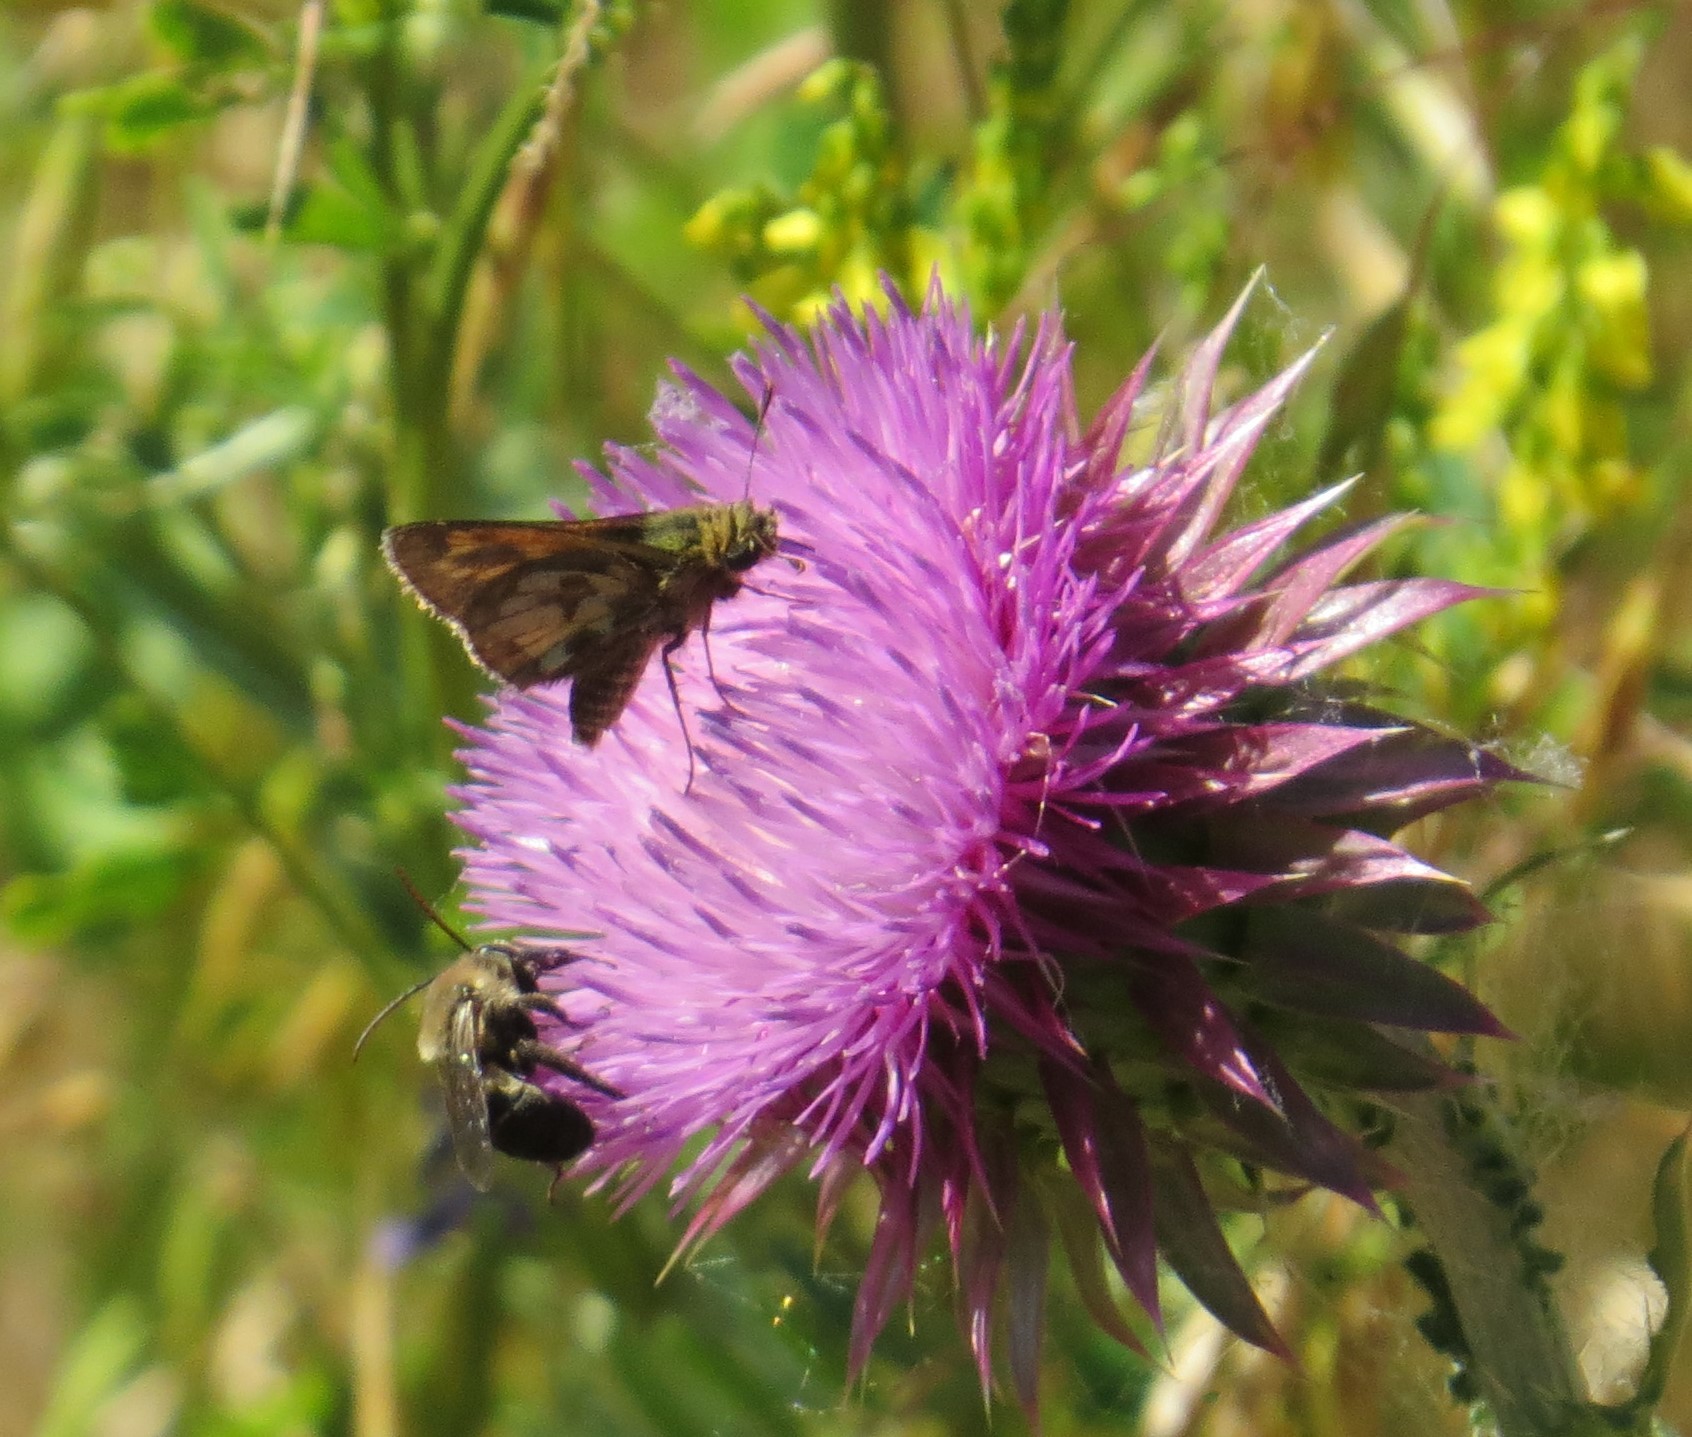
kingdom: Animalia
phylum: Arthropoda
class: Insecta
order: Lepidoptera
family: Hesperiidae
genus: Polites
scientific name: Polites coras
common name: Peck's skipper
